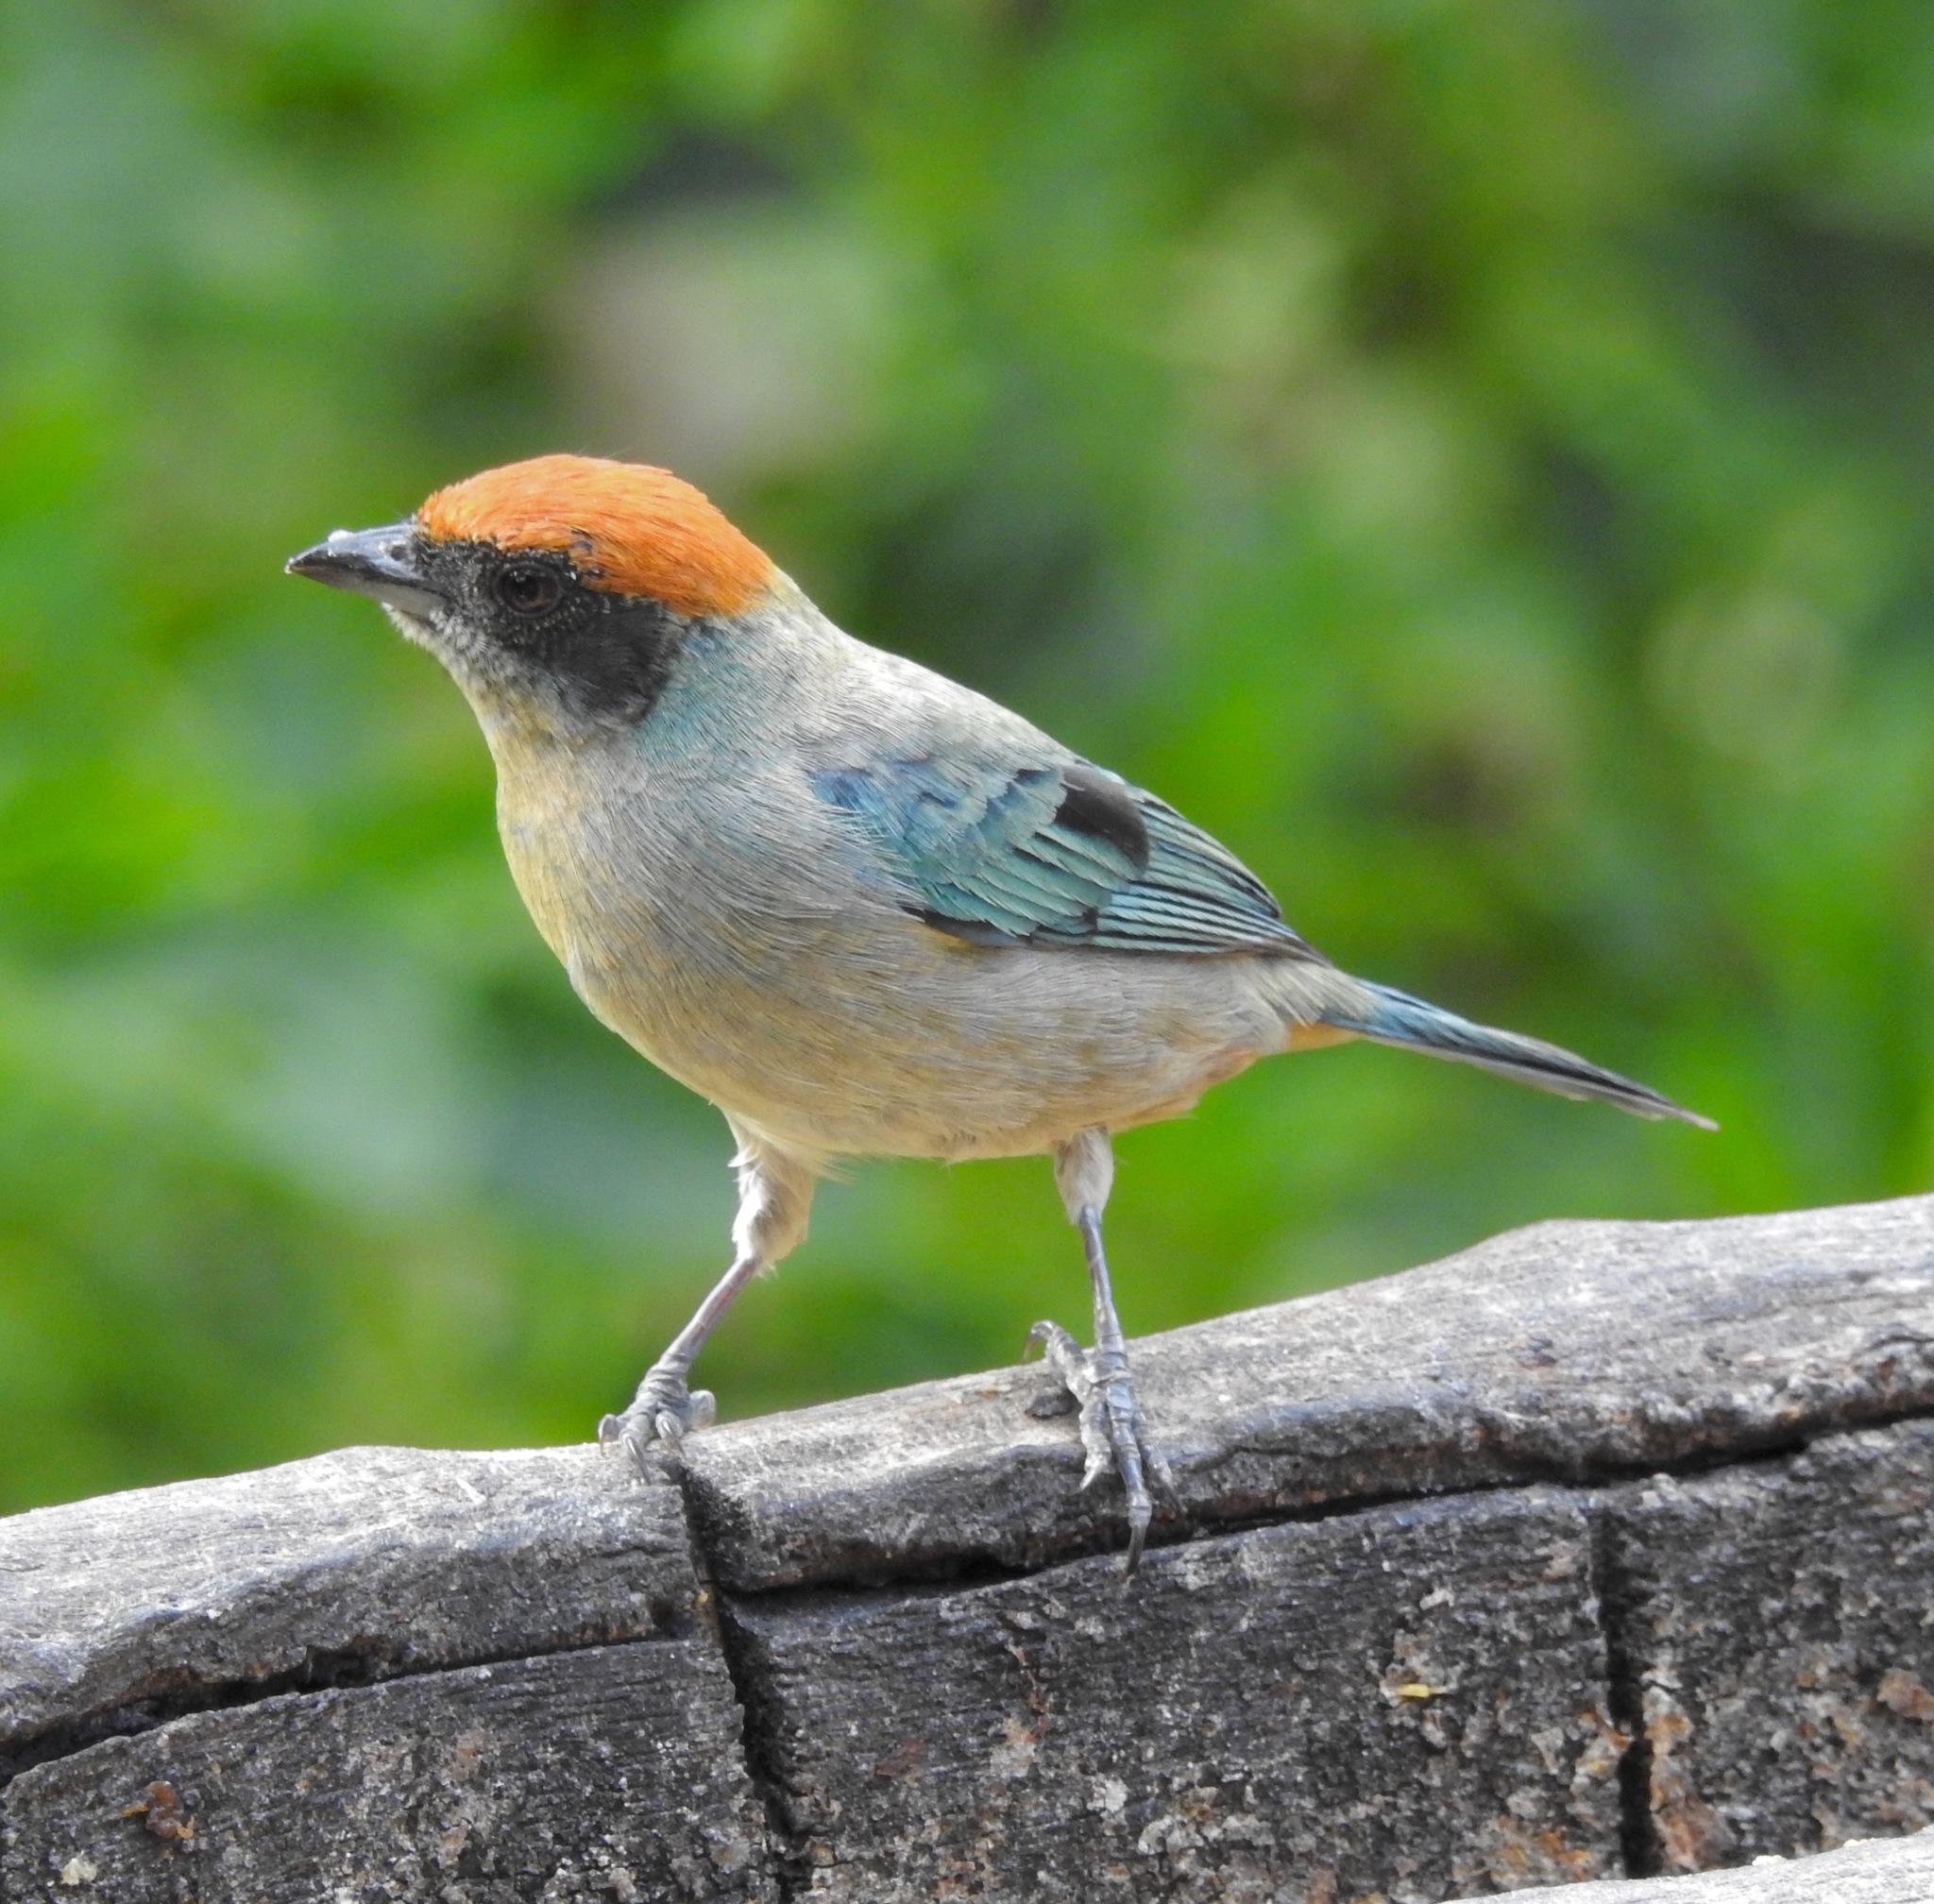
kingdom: Animalia
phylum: Chordata
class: Aves
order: Passeriformes
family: Thraupidae
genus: Stilpnia
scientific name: Stilpnia vitriolina
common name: Scrub tanager
